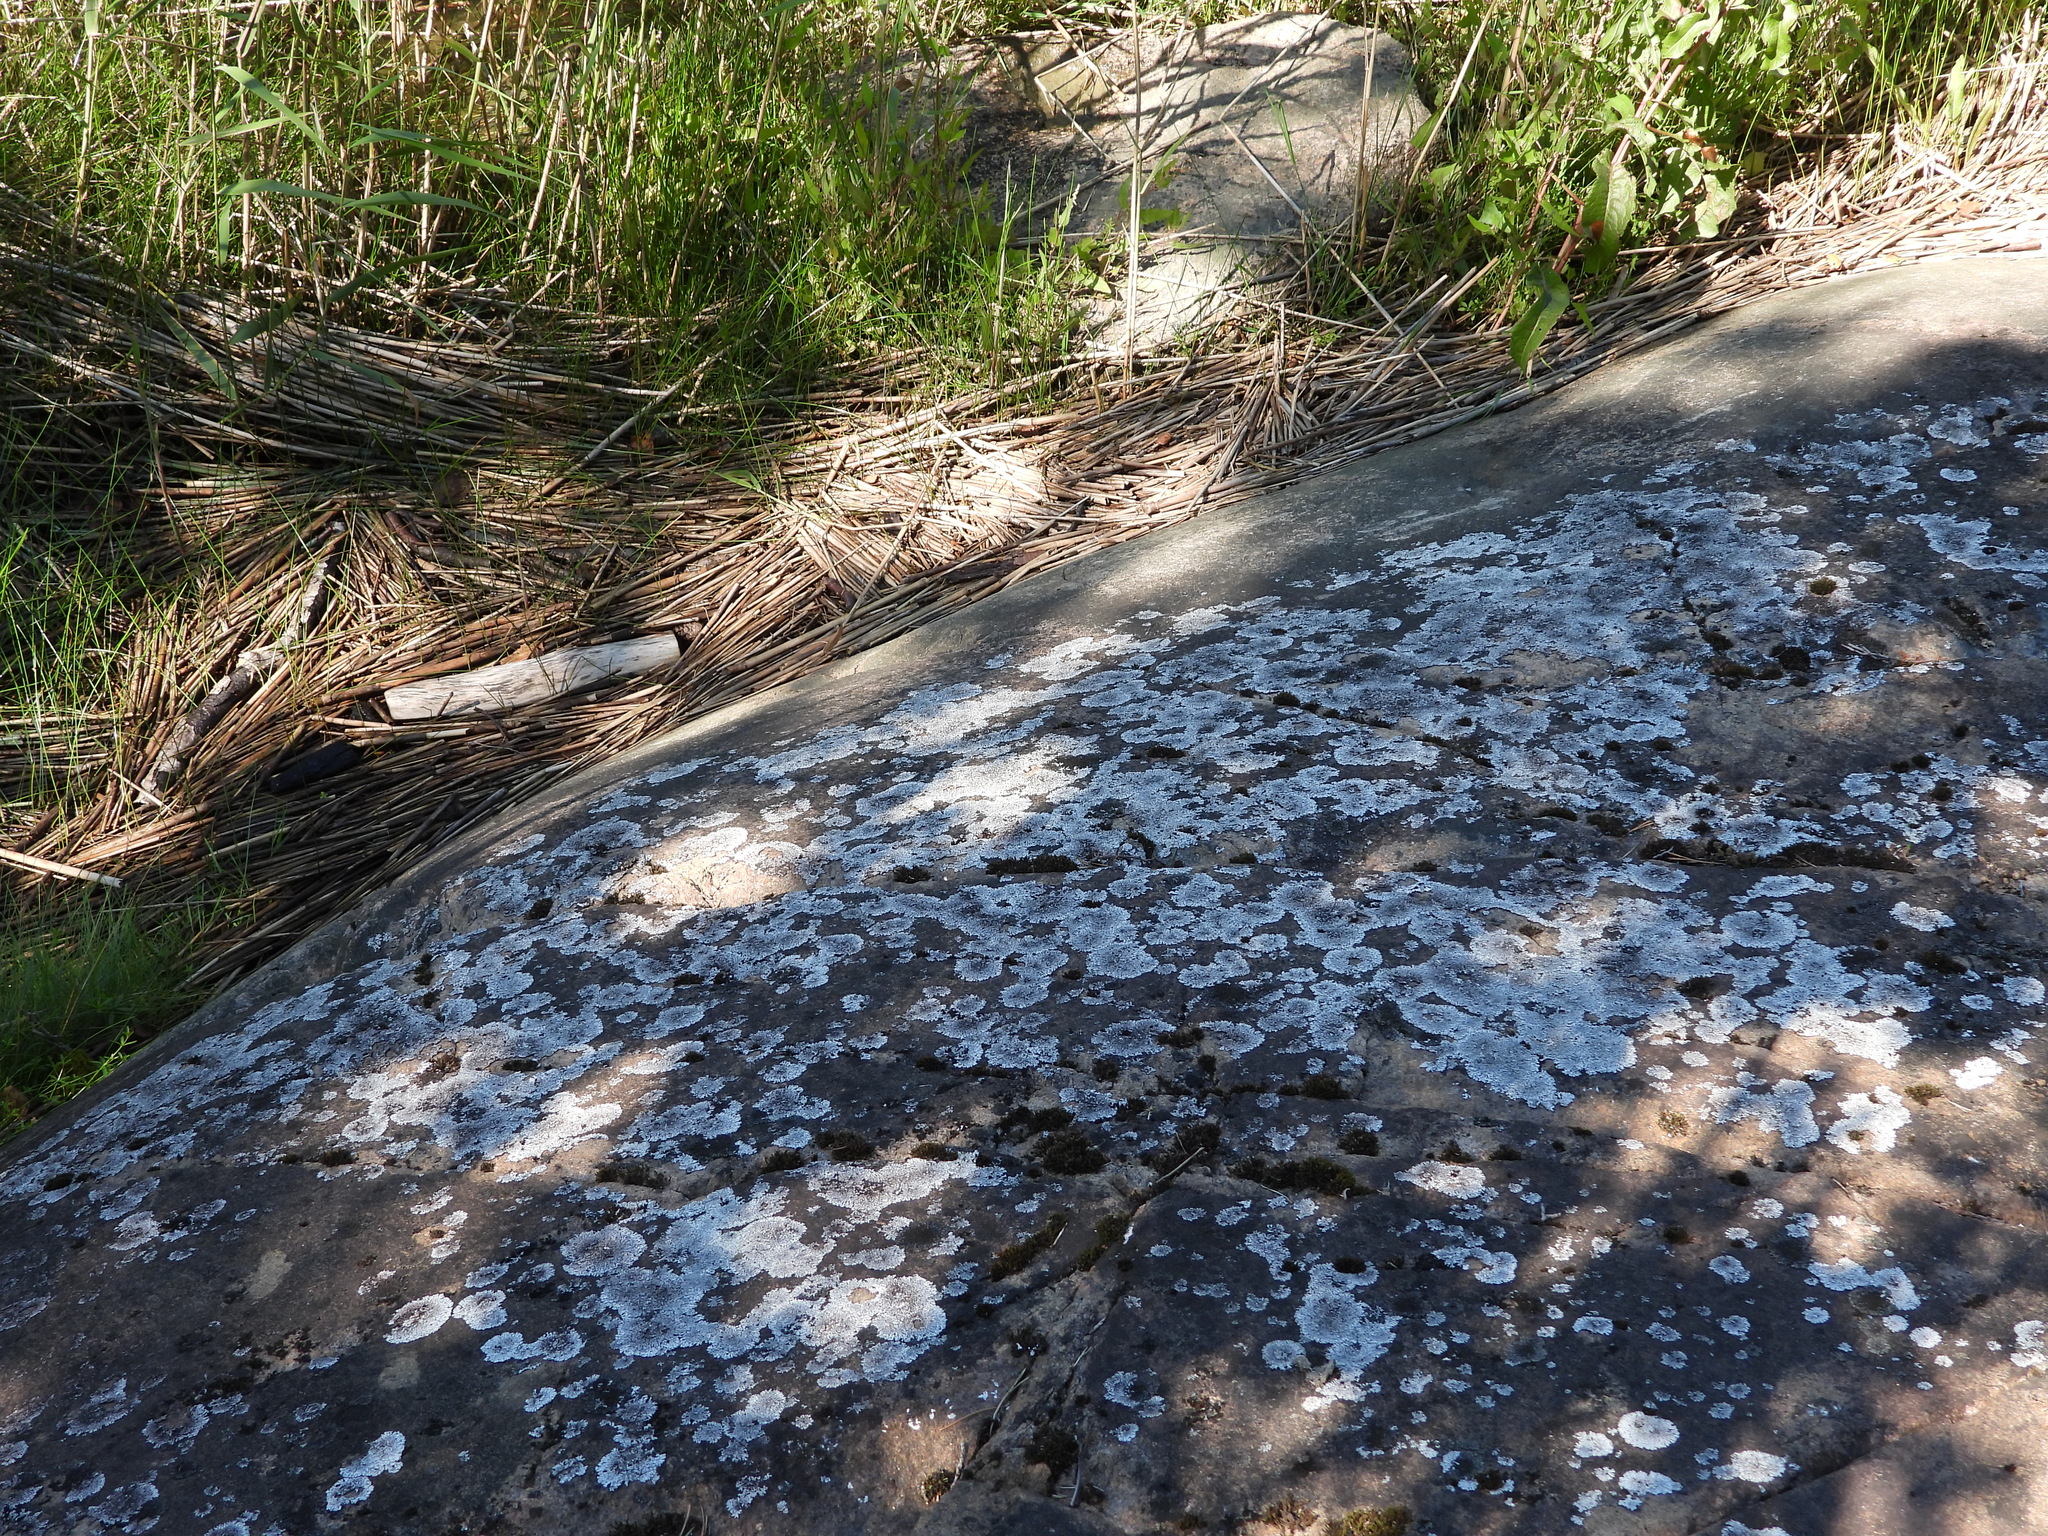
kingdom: Fungi
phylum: Ascomycota
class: Lecanoromycetes
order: Caliciales
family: Physciaceae
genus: Physcia
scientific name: Physcia caesia
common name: Blue-gray rosette lichen
